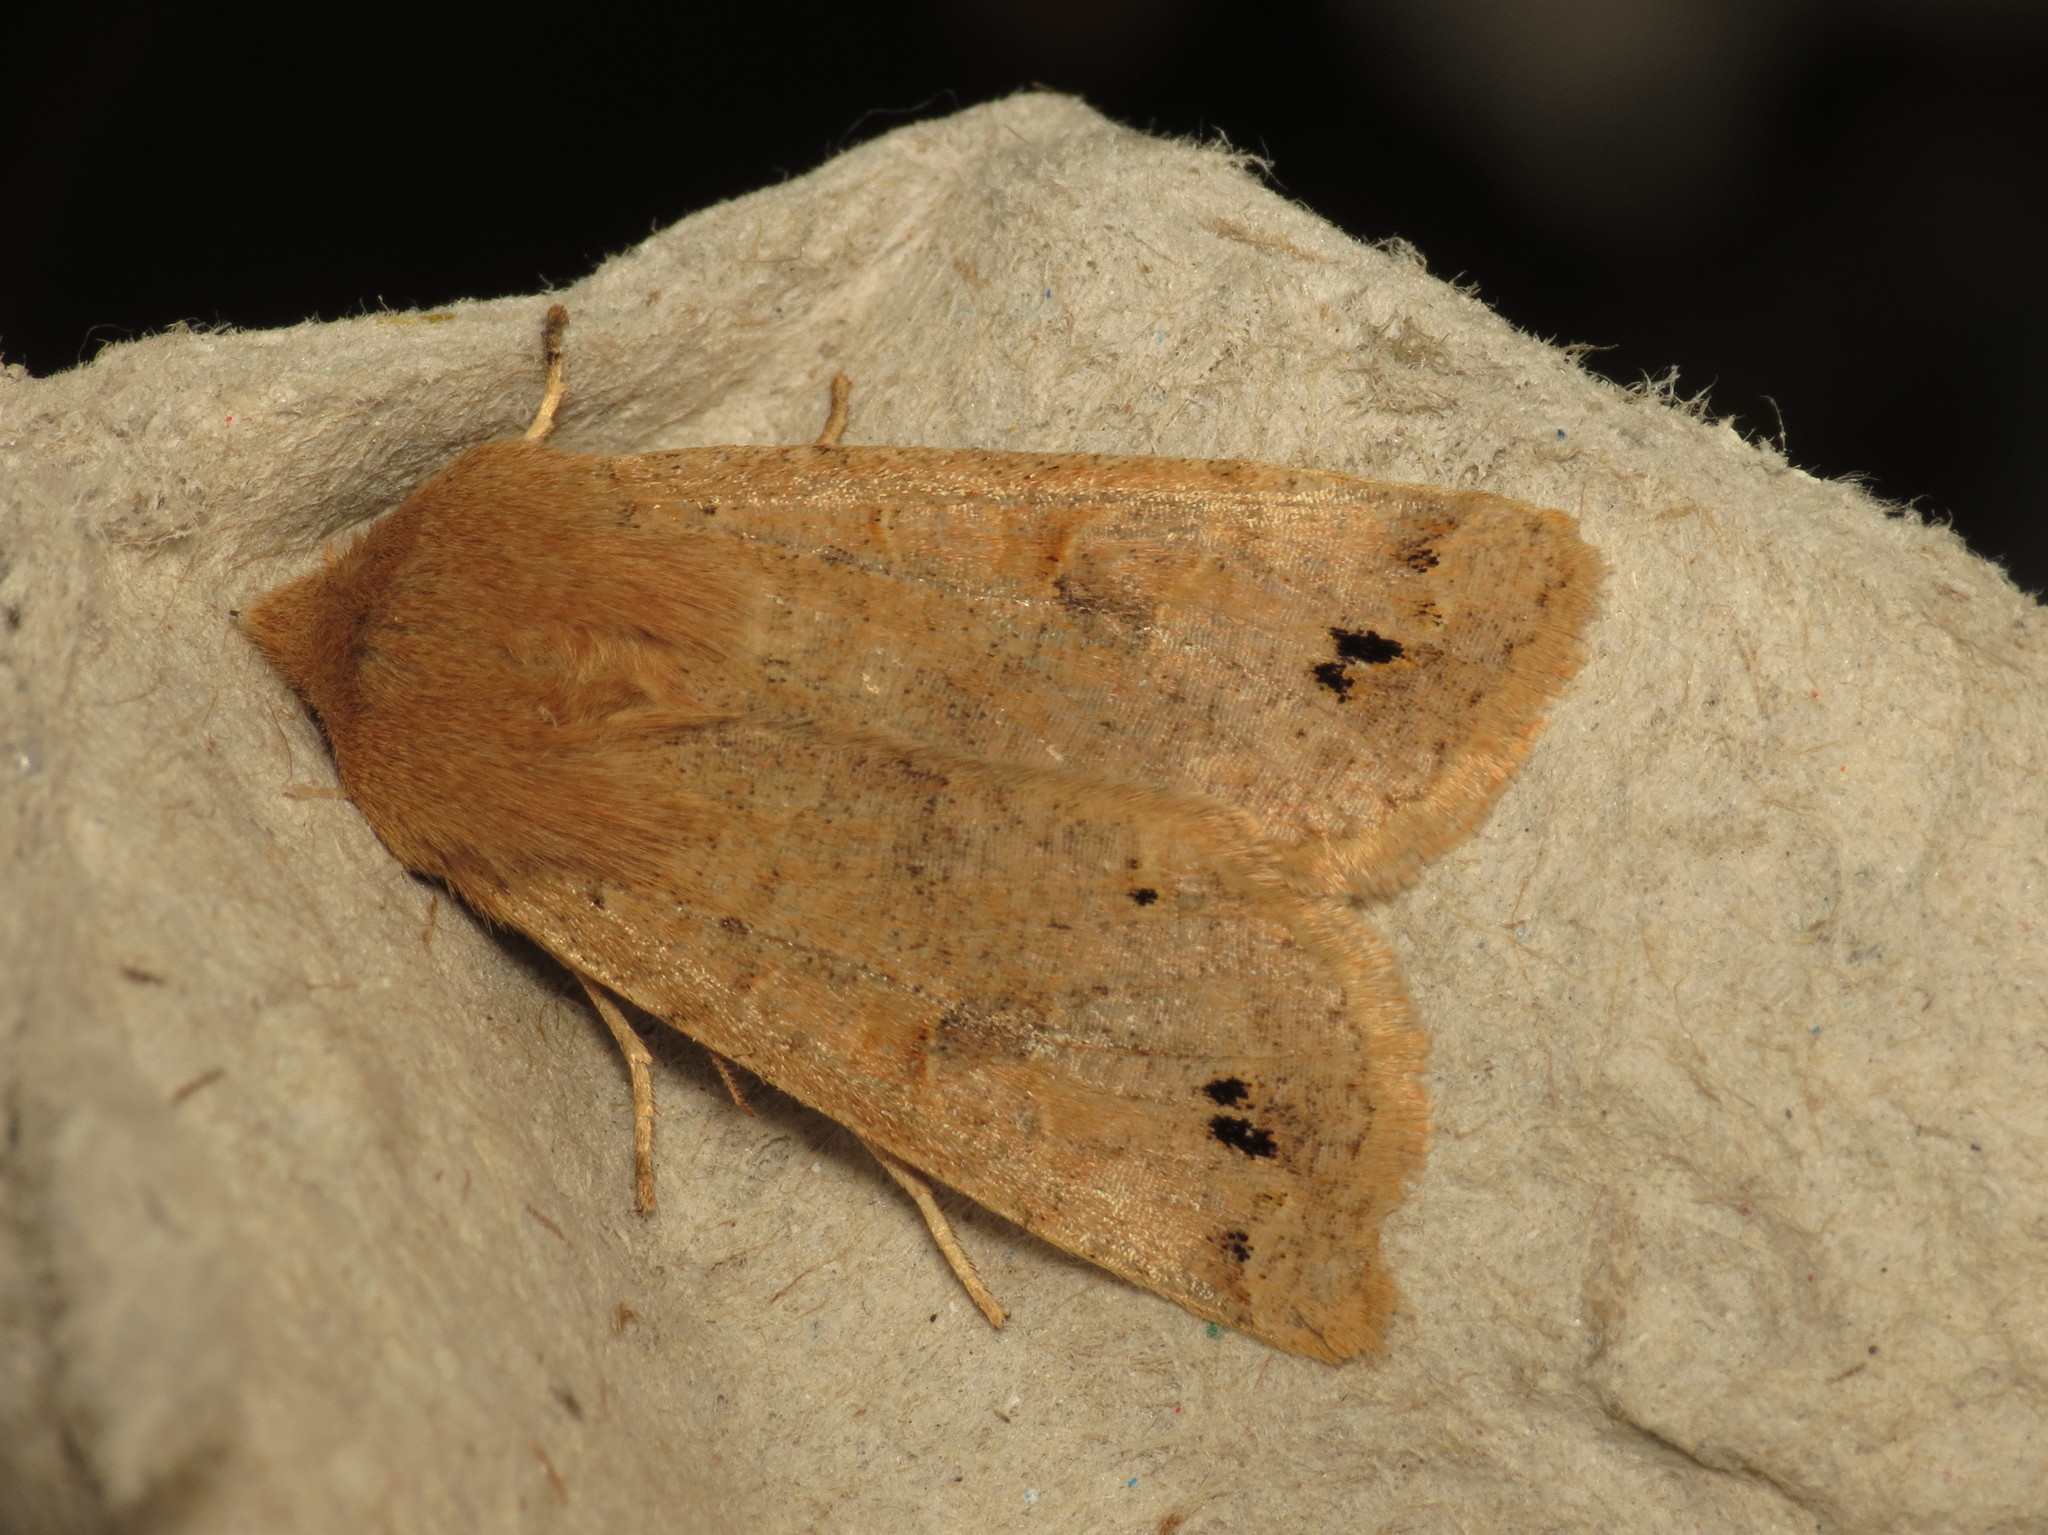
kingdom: Animalia
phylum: Arthropoda
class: Insecta
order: Lepidoptera
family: Noctuidae
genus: Anorthoa
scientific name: Anorthoa munda
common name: Twin-spotted quaker
